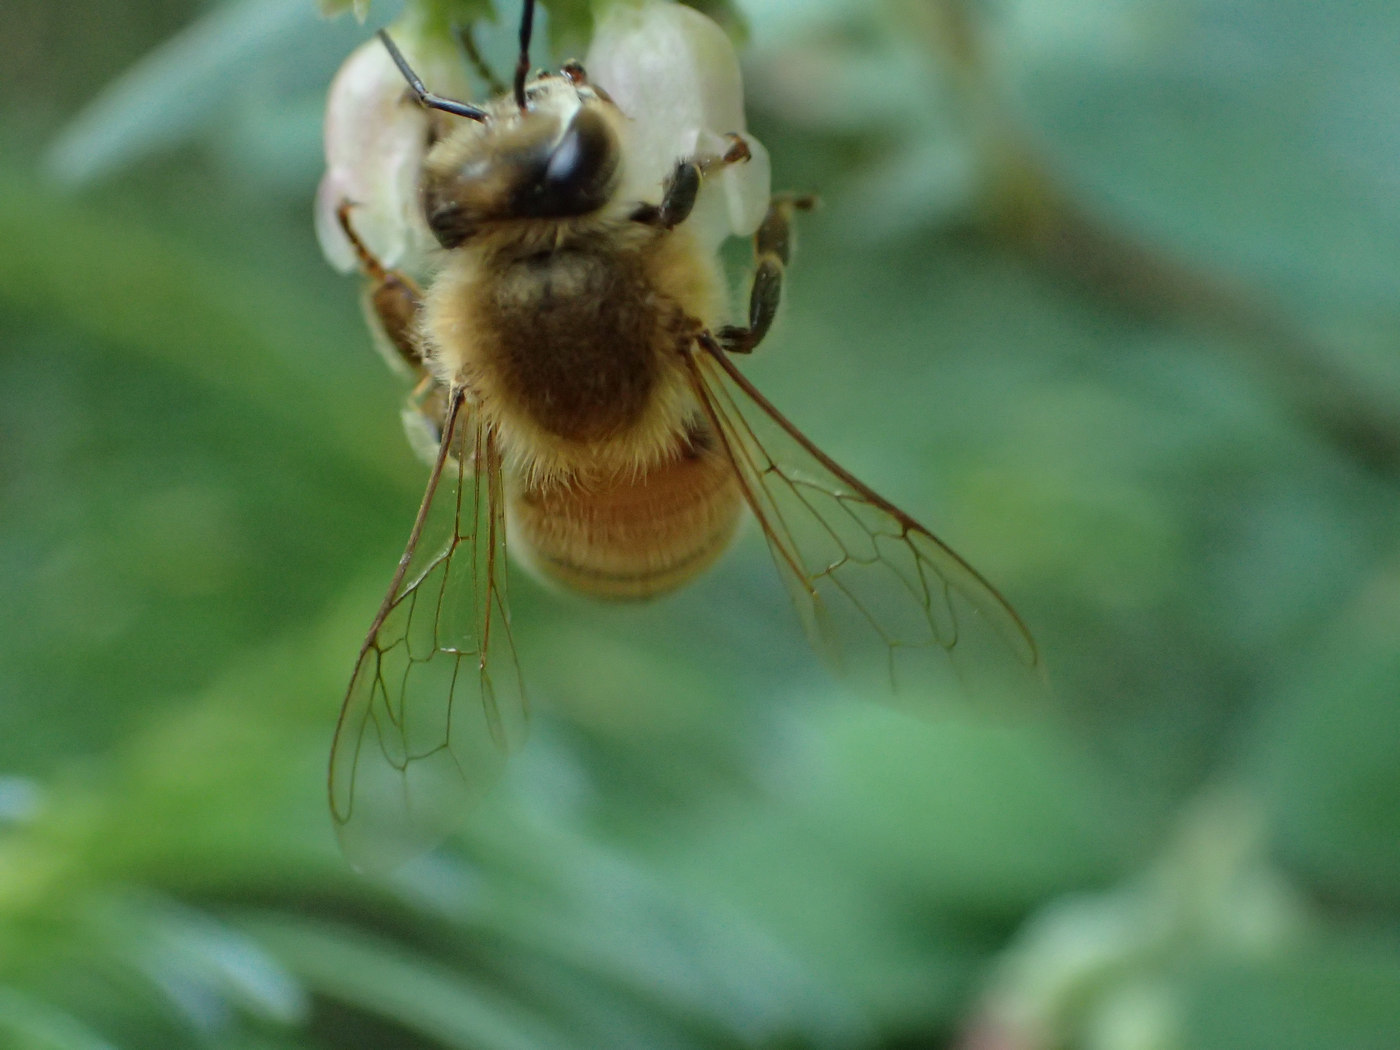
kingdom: Animalia
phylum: Arthropoda
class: Insecta
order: Hymenoptera
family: Apidae
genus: Apis
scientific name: Apis mellifera
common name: Honey bee
